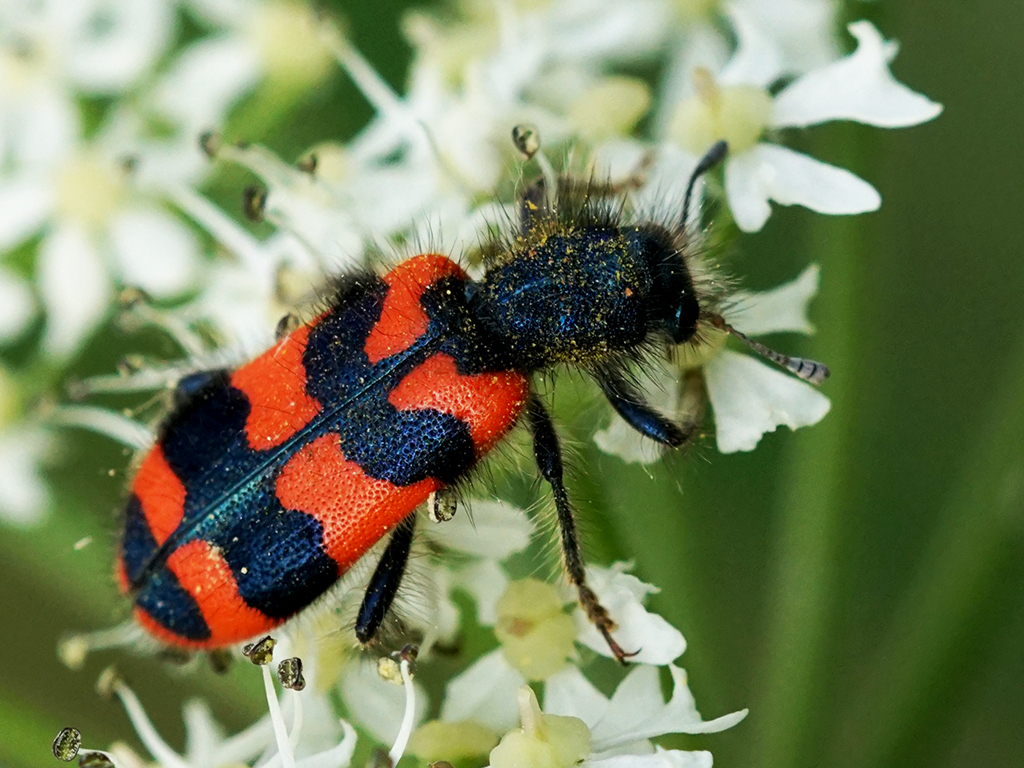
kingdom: Animalia
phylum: Arthropoda
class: Insecta
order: Coleoptera
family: Cleridae
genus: Trichodes
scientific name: Trichodes alvearius
